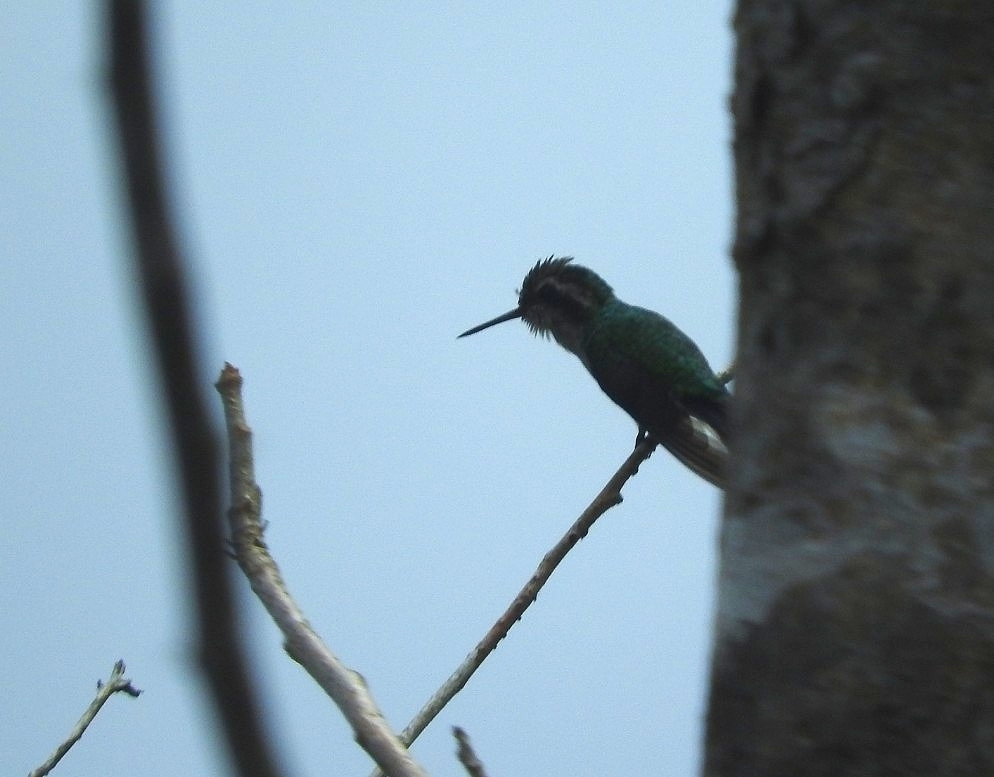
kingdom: Animalia
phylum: Chordata
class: Aves
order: Apodiformes
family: Trochilidae
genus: Cynanthus
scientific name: Cynanthus canivetii
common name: Canivet's emerald
